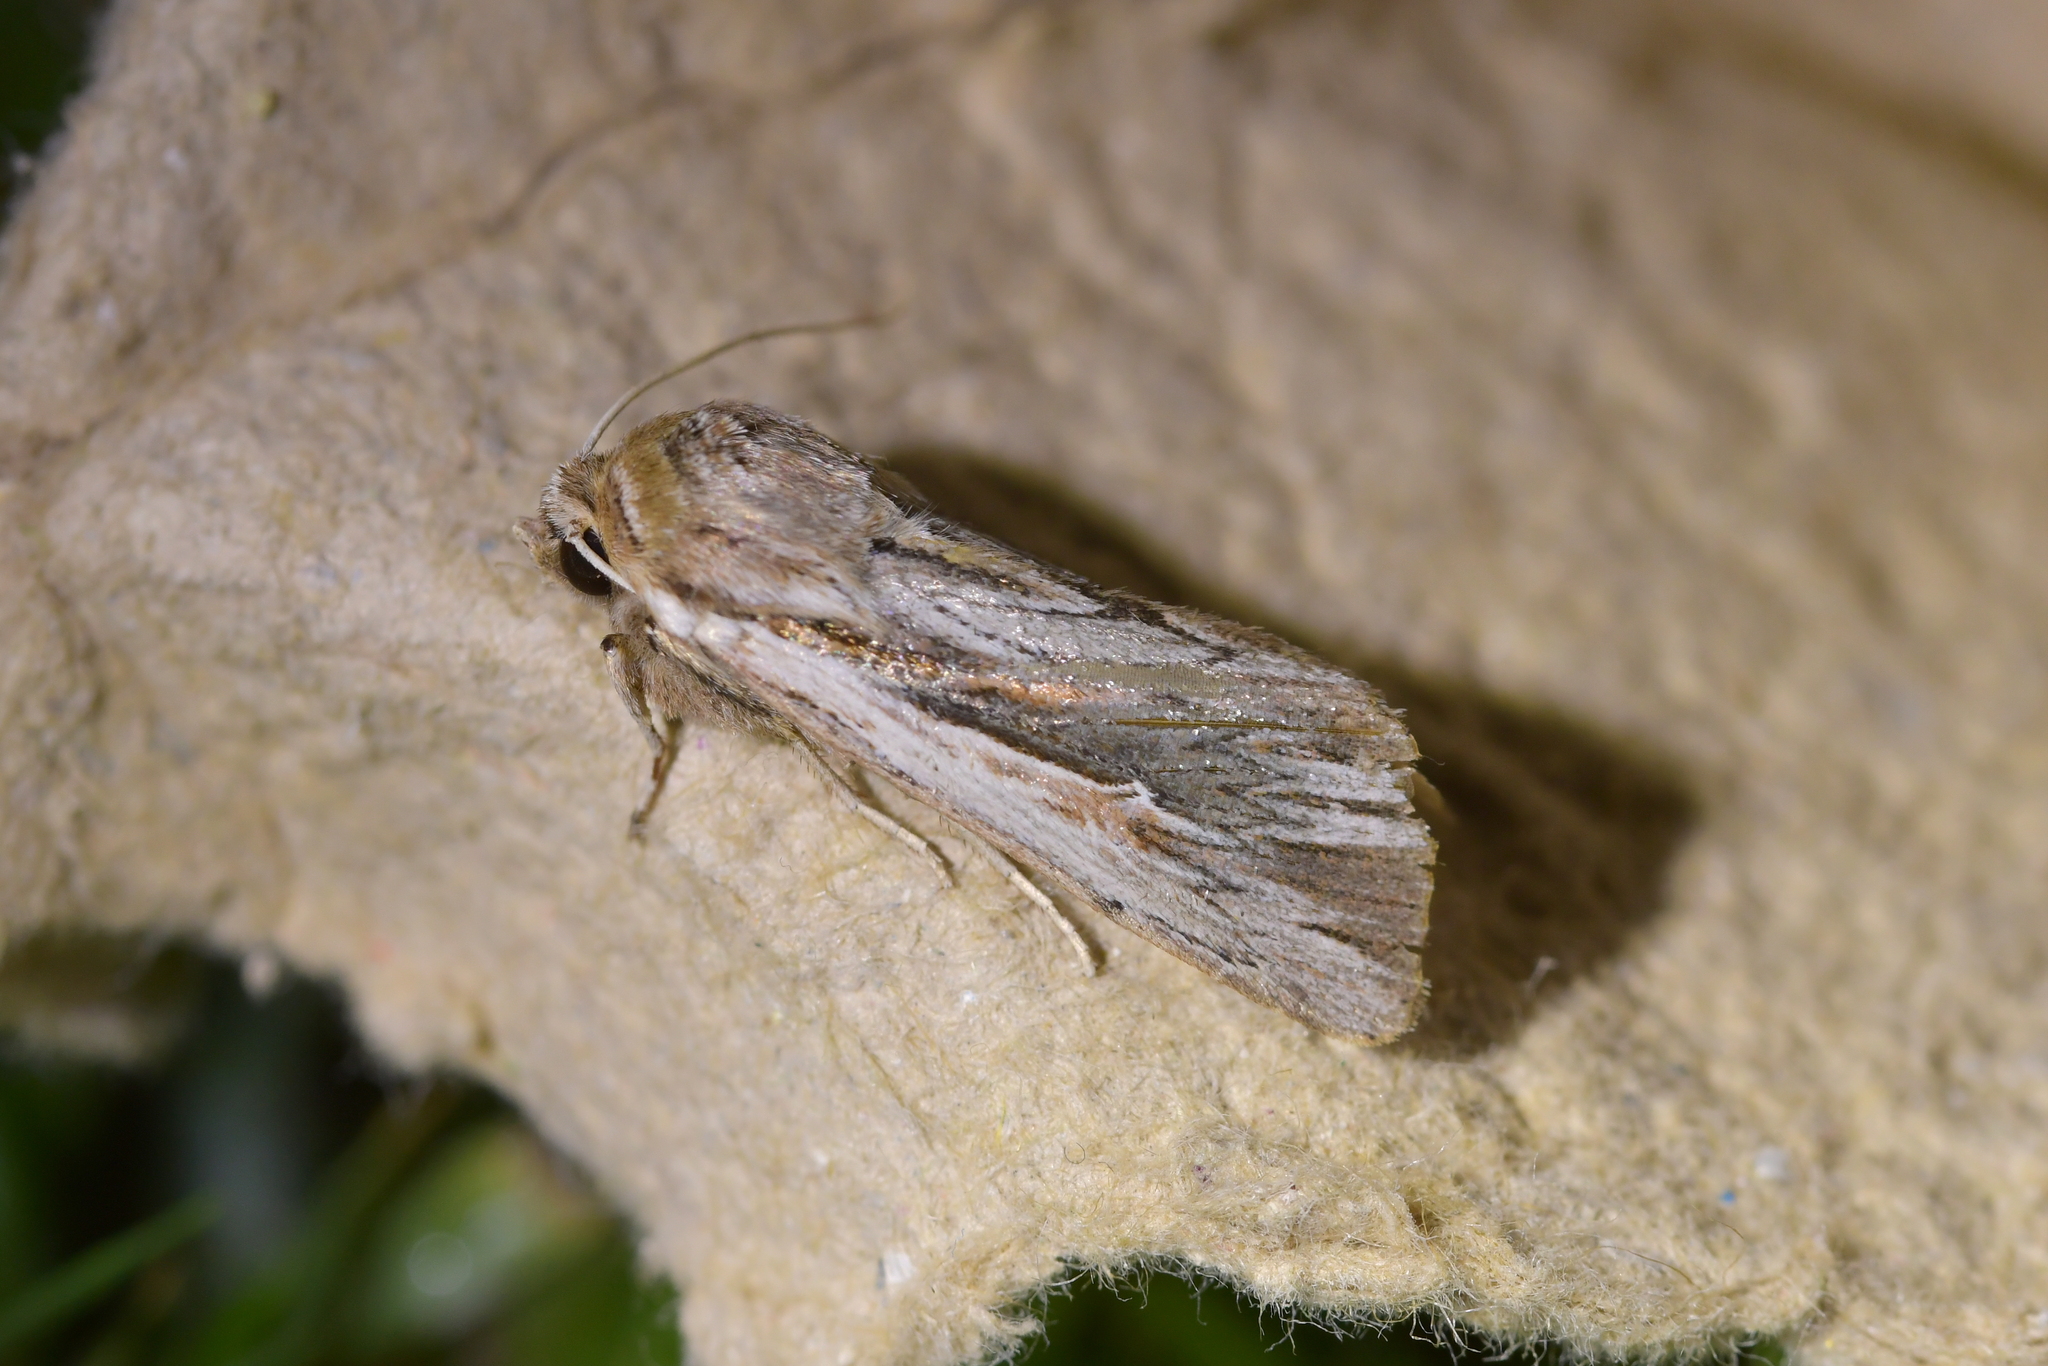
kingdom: Animalia
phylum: Arthropoda
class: Insecta
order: Lepidoptera
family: Noctuidae
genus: Persectania
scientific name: Persectania aversa
